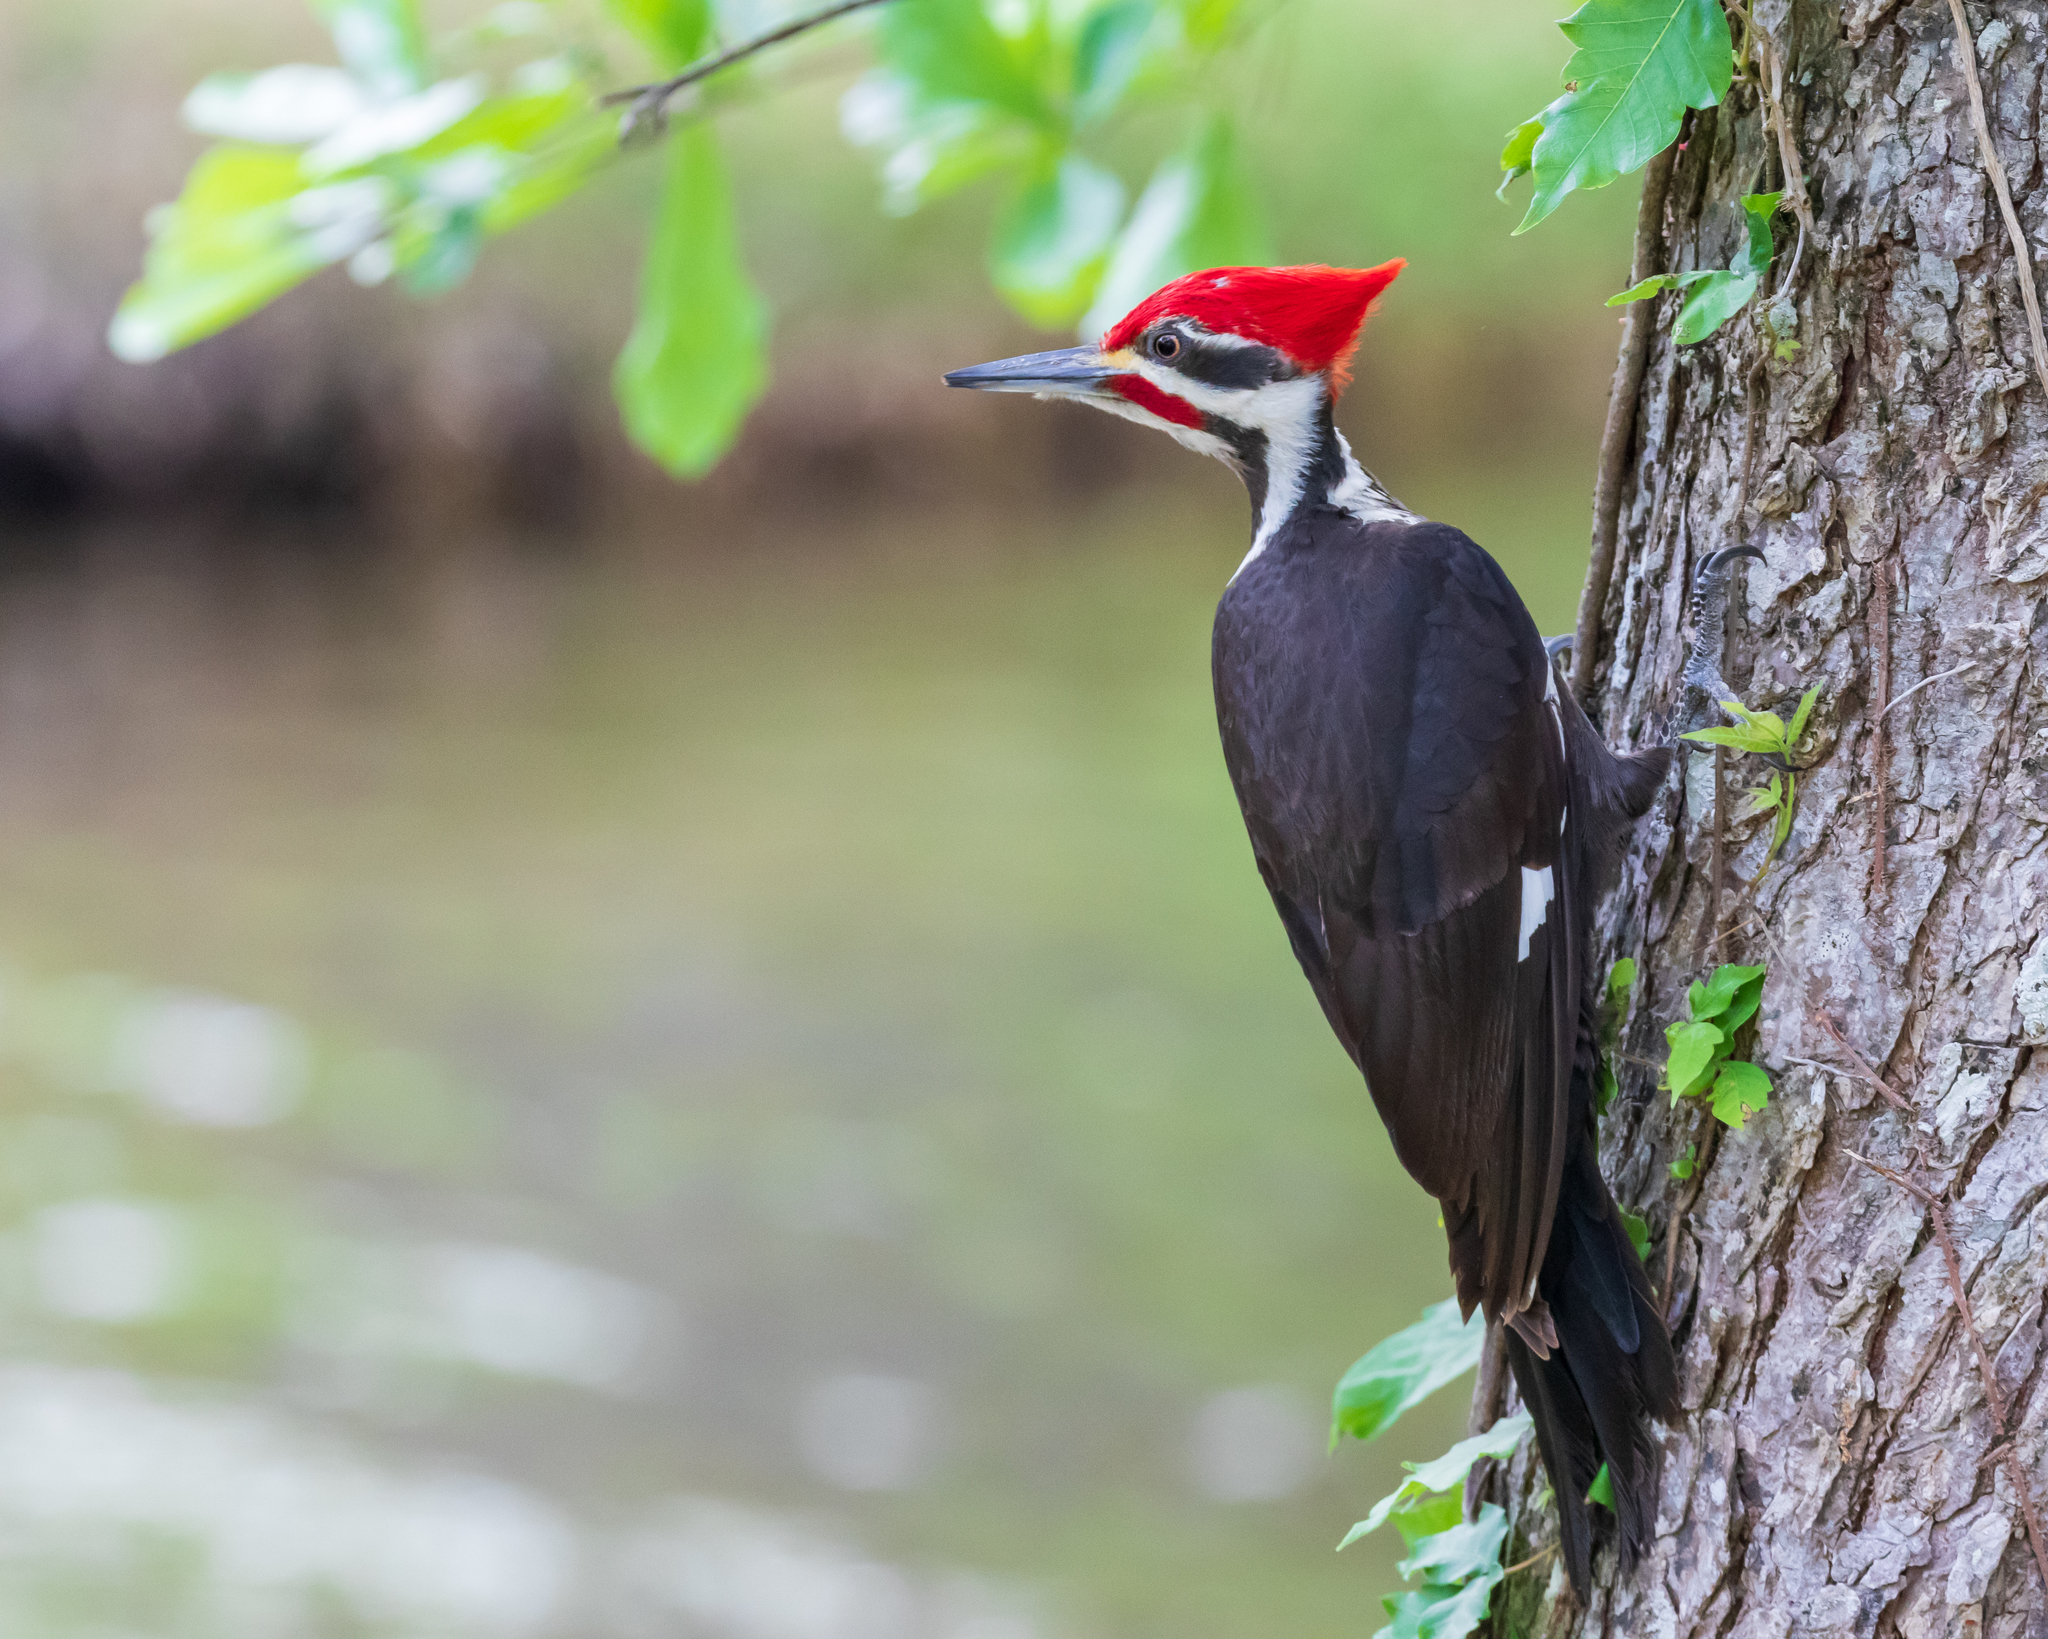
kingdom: Animalia
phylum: Chordata
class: Aves
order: Piciformes
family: Picidae
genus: Dryocopus
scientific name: Dryocopus pileatus
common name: Pileated woodpecker
